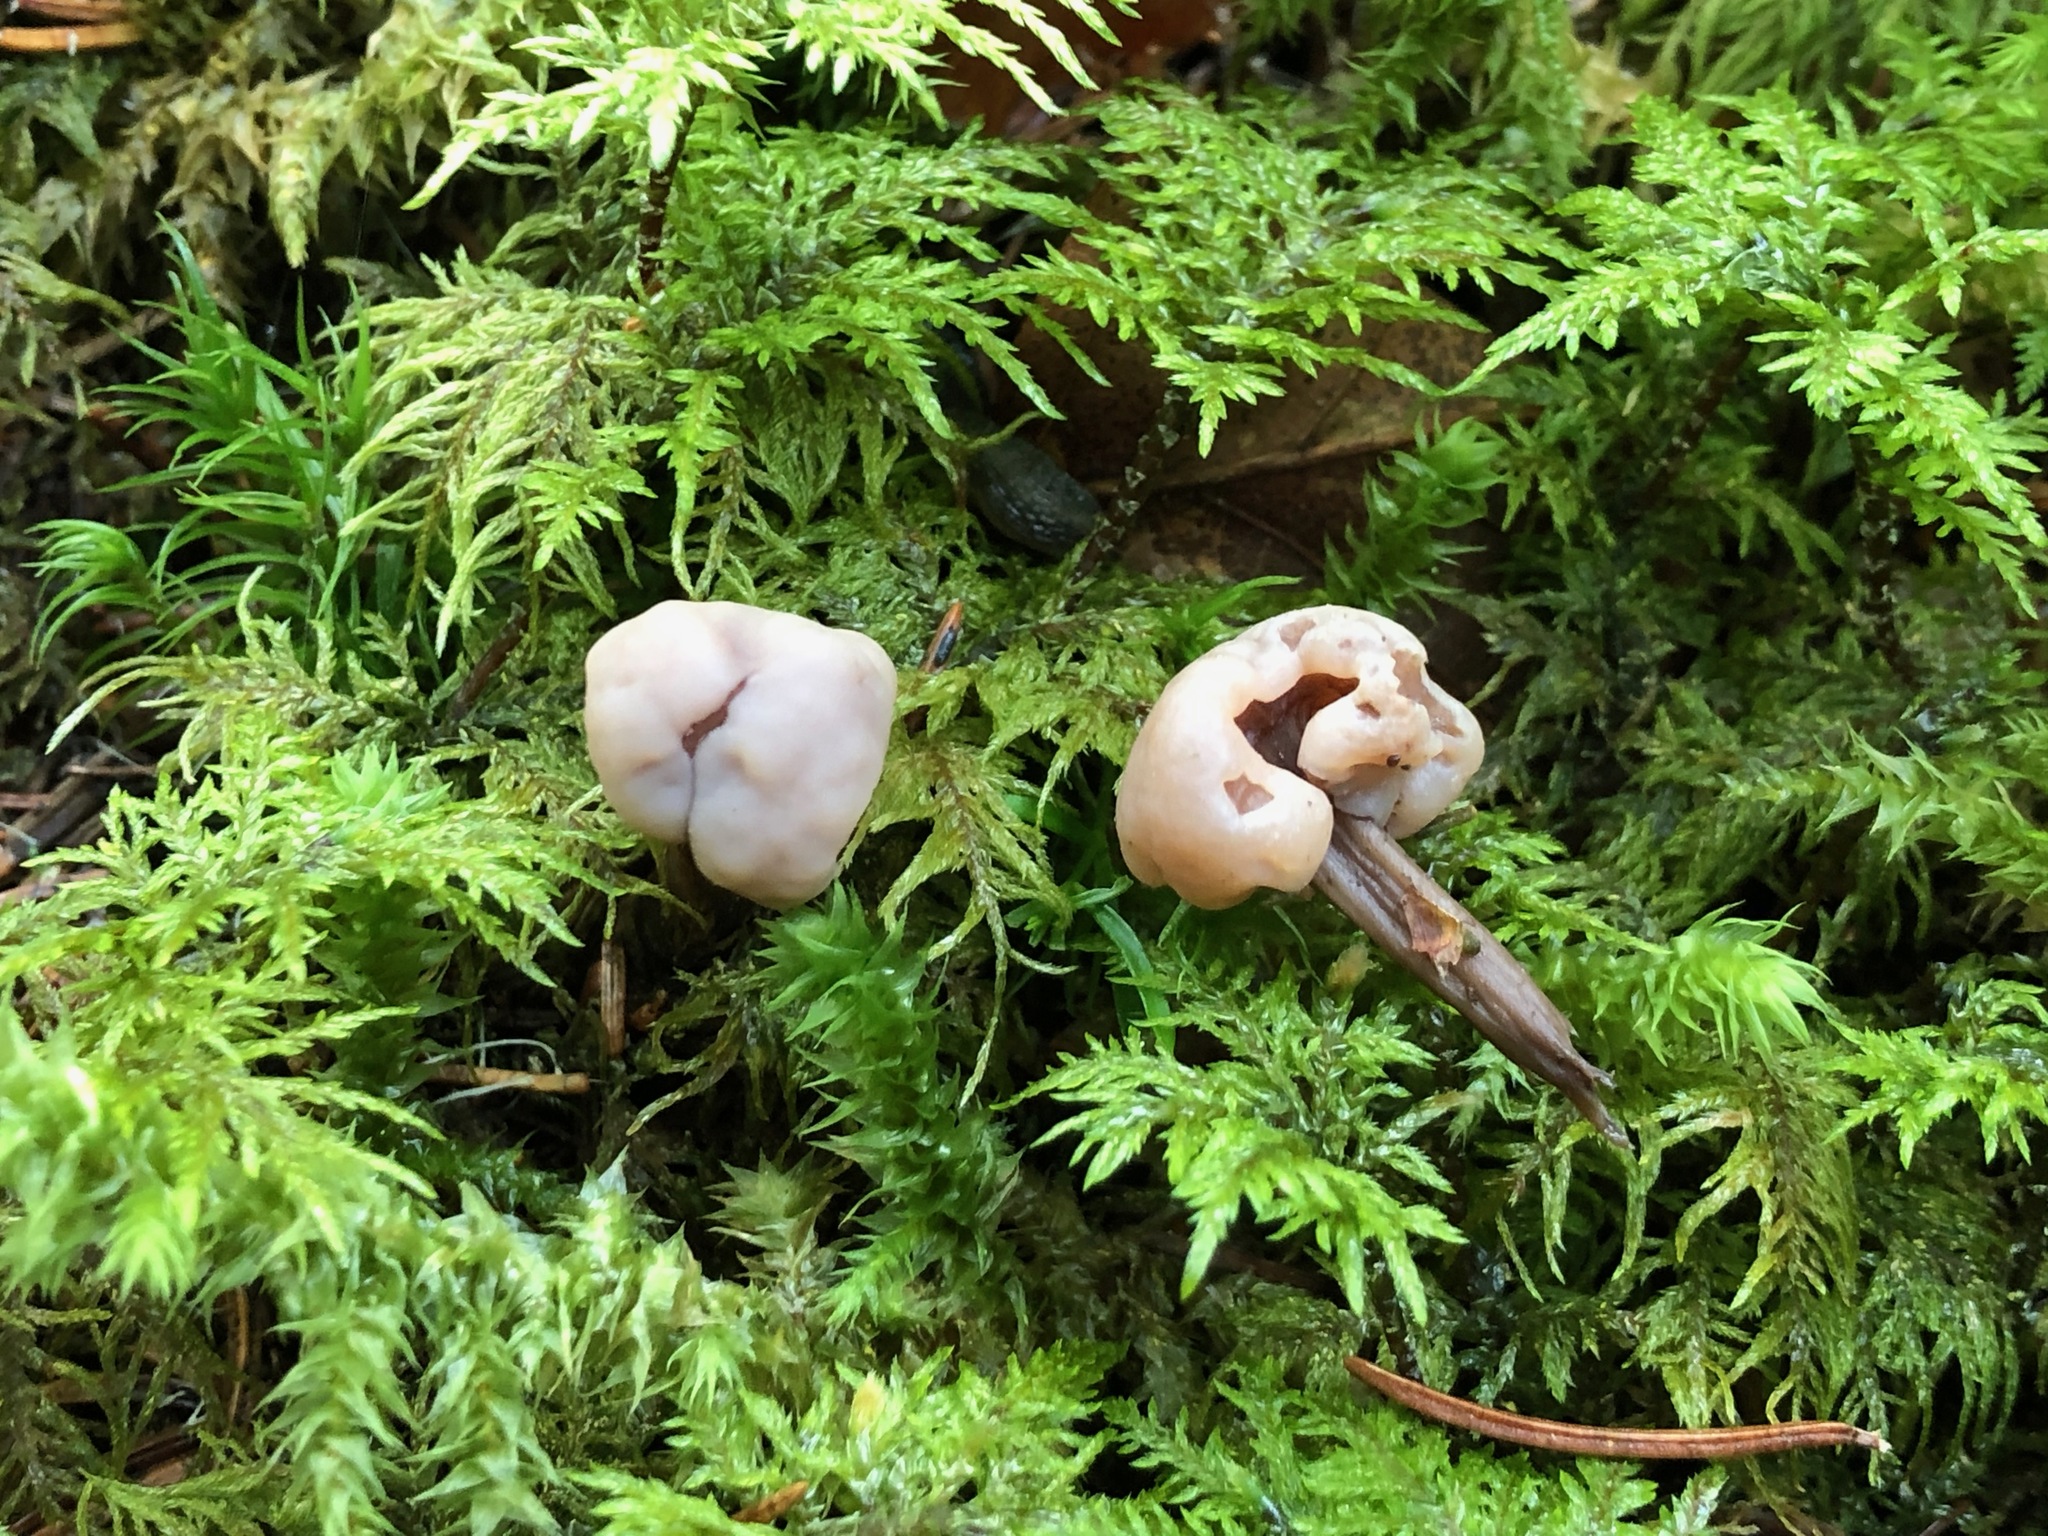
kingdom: Fungi
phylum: Ascomycota
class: Leotiomycetes
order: Rhytismatales
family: Cudoniaceae
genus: Cudonia
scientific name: Cudonia circinans
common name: Redleg jellybaby
